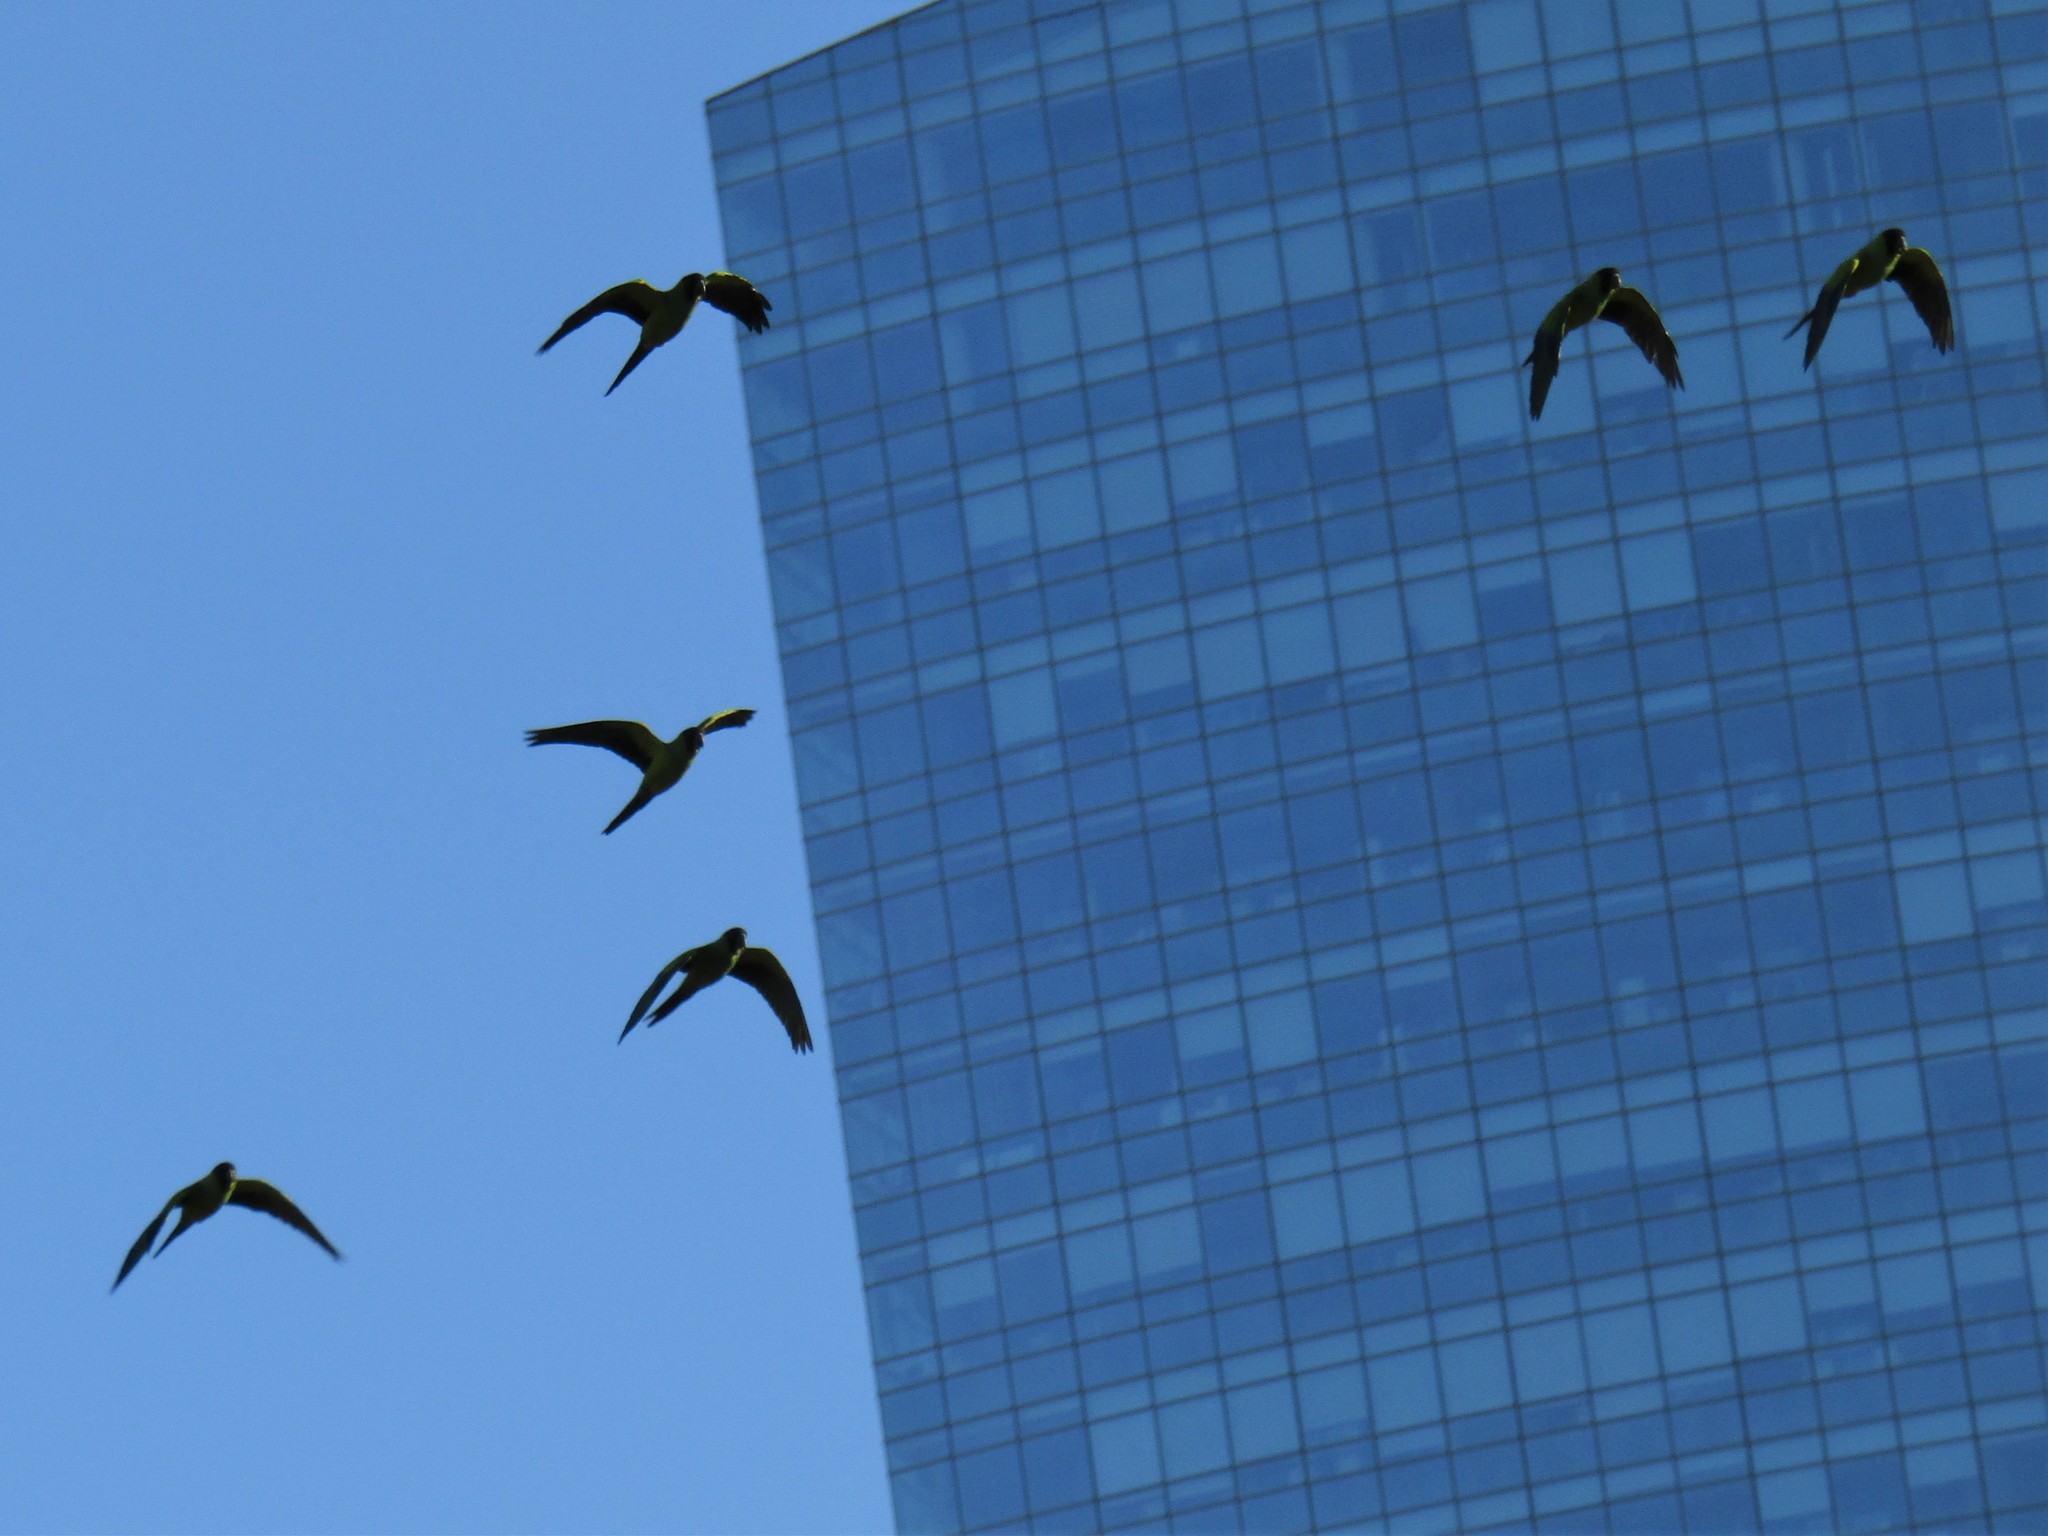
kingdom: Animalia
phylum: Chordata
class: Aves
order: Psittaciformes
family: Psittacidae
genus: Nandayus
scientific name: Nandayus nenday
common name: Nanday parakeet
